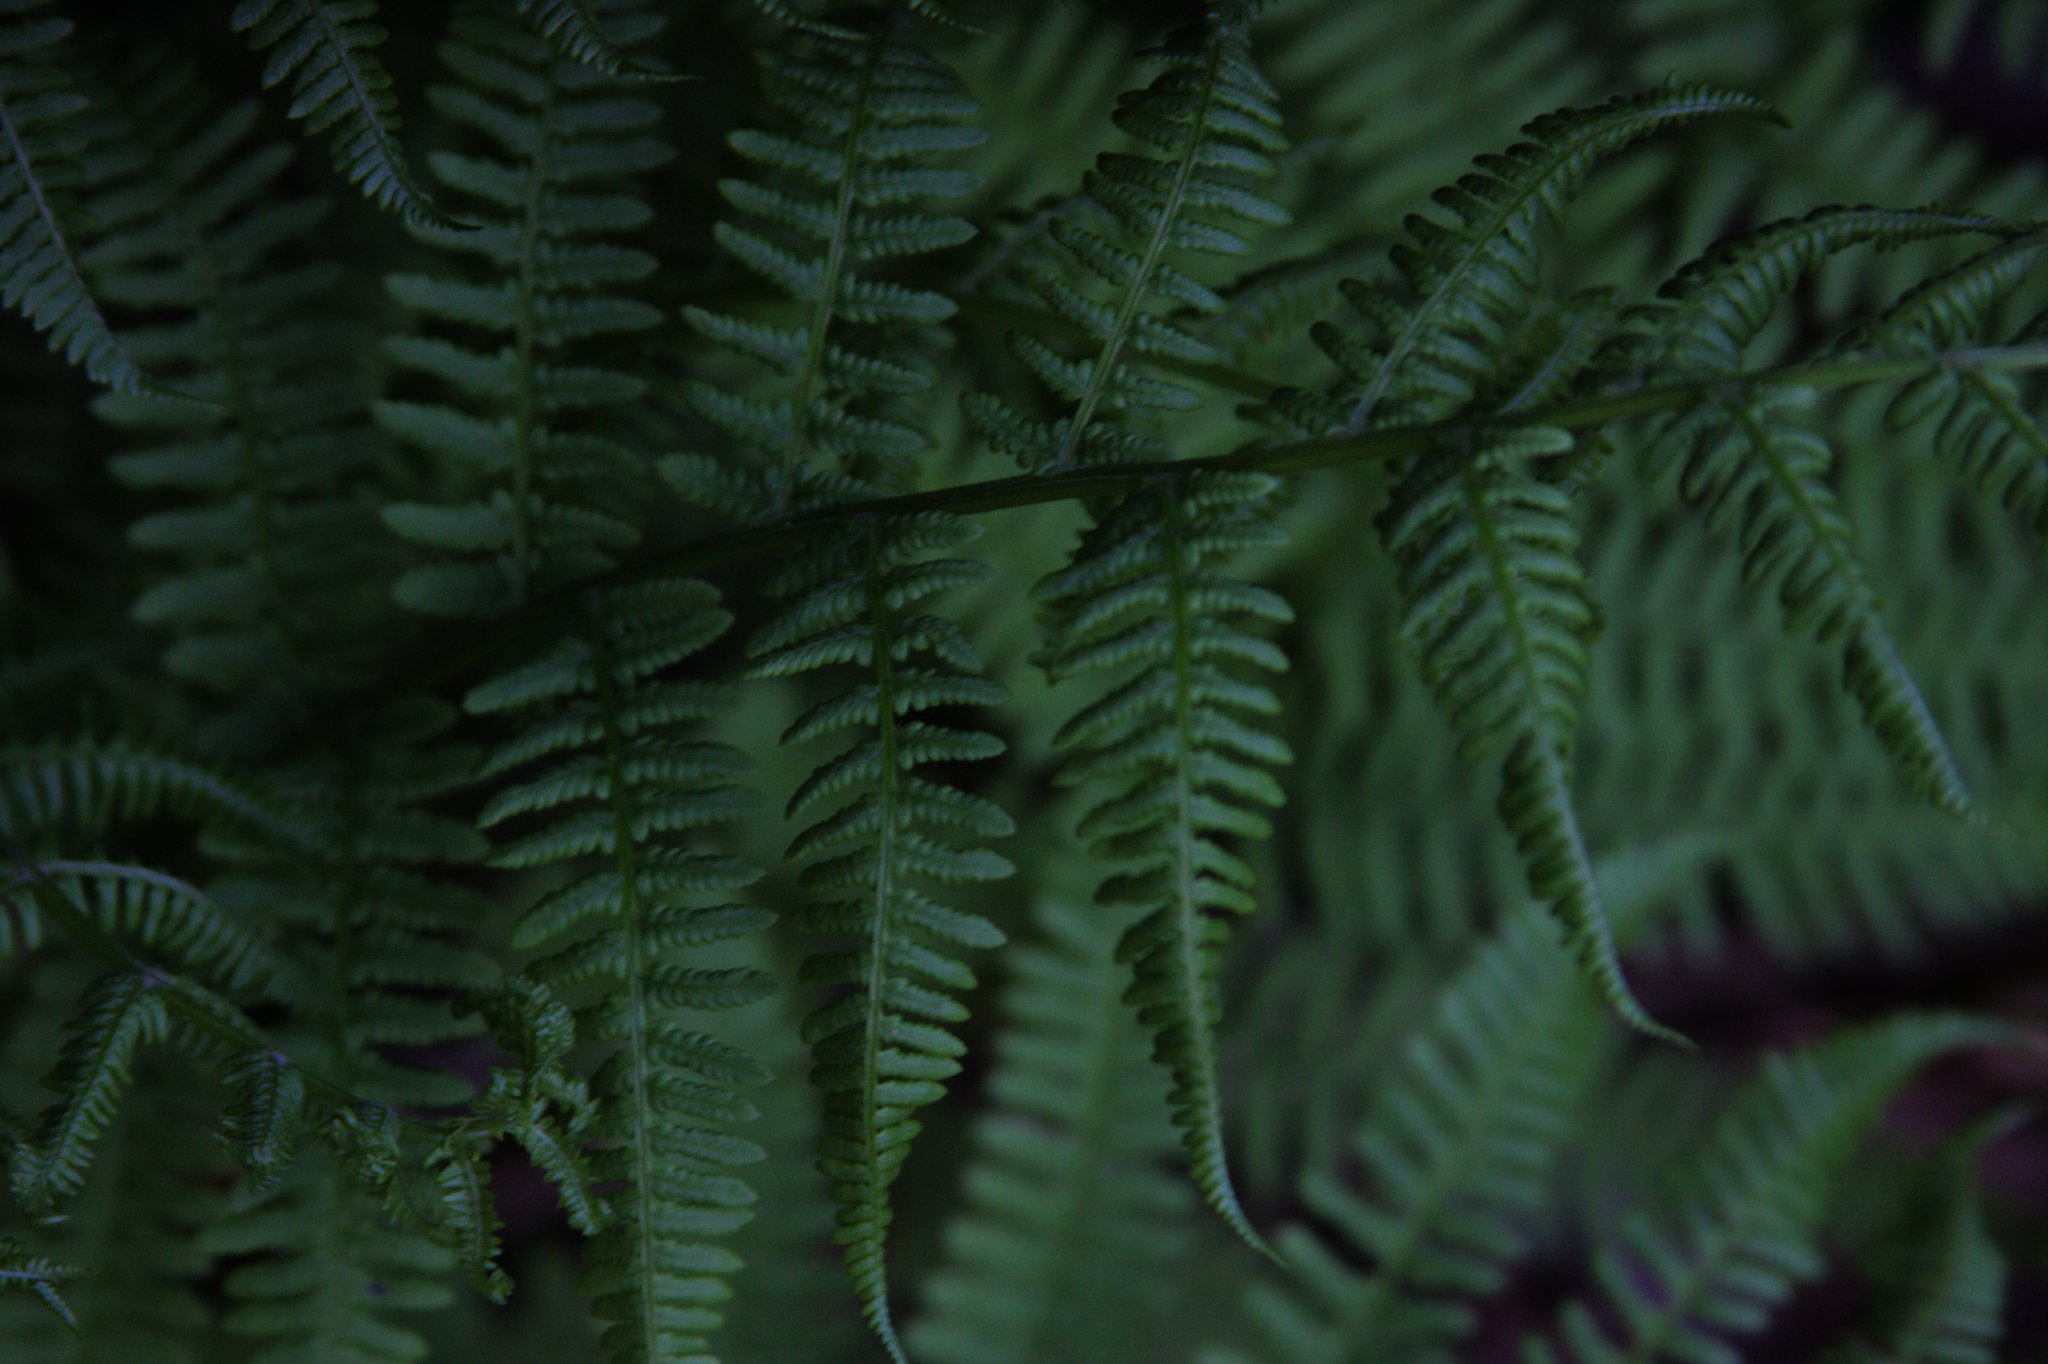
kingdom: Plantae
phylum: Tracheophyta
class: Polypodiopsida
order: Polypodiales
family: Athyriaceae
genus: Athyrium
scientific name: Athyrium angustum
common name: Northern lady fern
